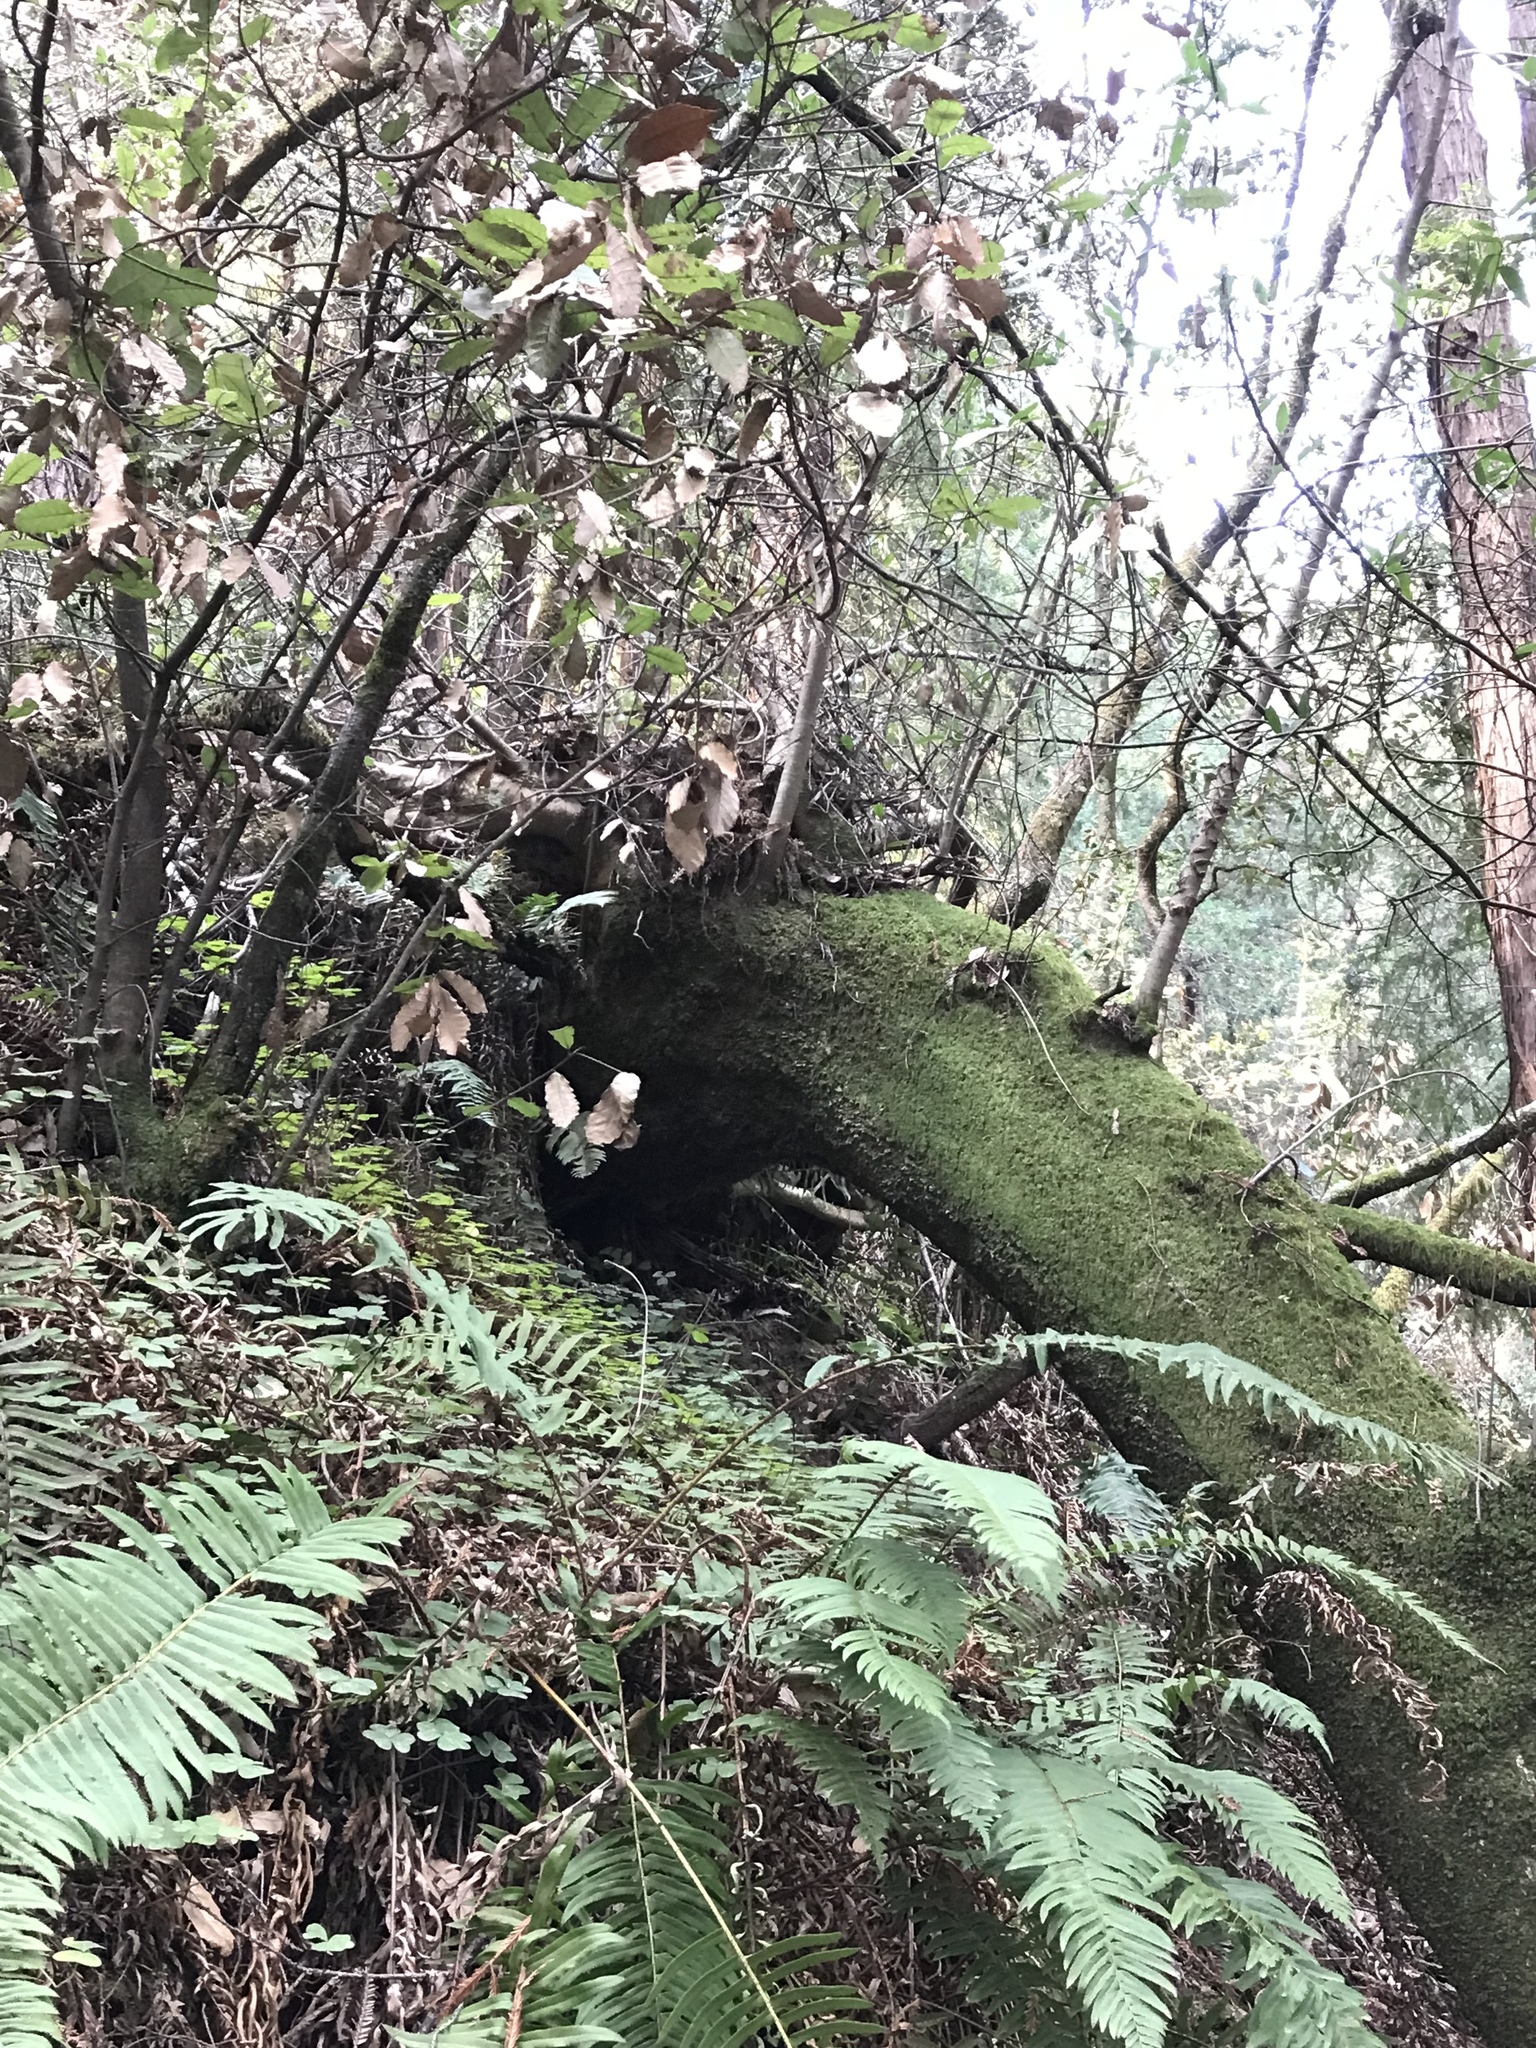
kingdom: Plantae
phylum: Tracheophyta
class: Magnoliopsida
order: Laurales
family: Lauraceae
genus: Umbellularia
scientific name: Umbellularia californica
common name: California bay
